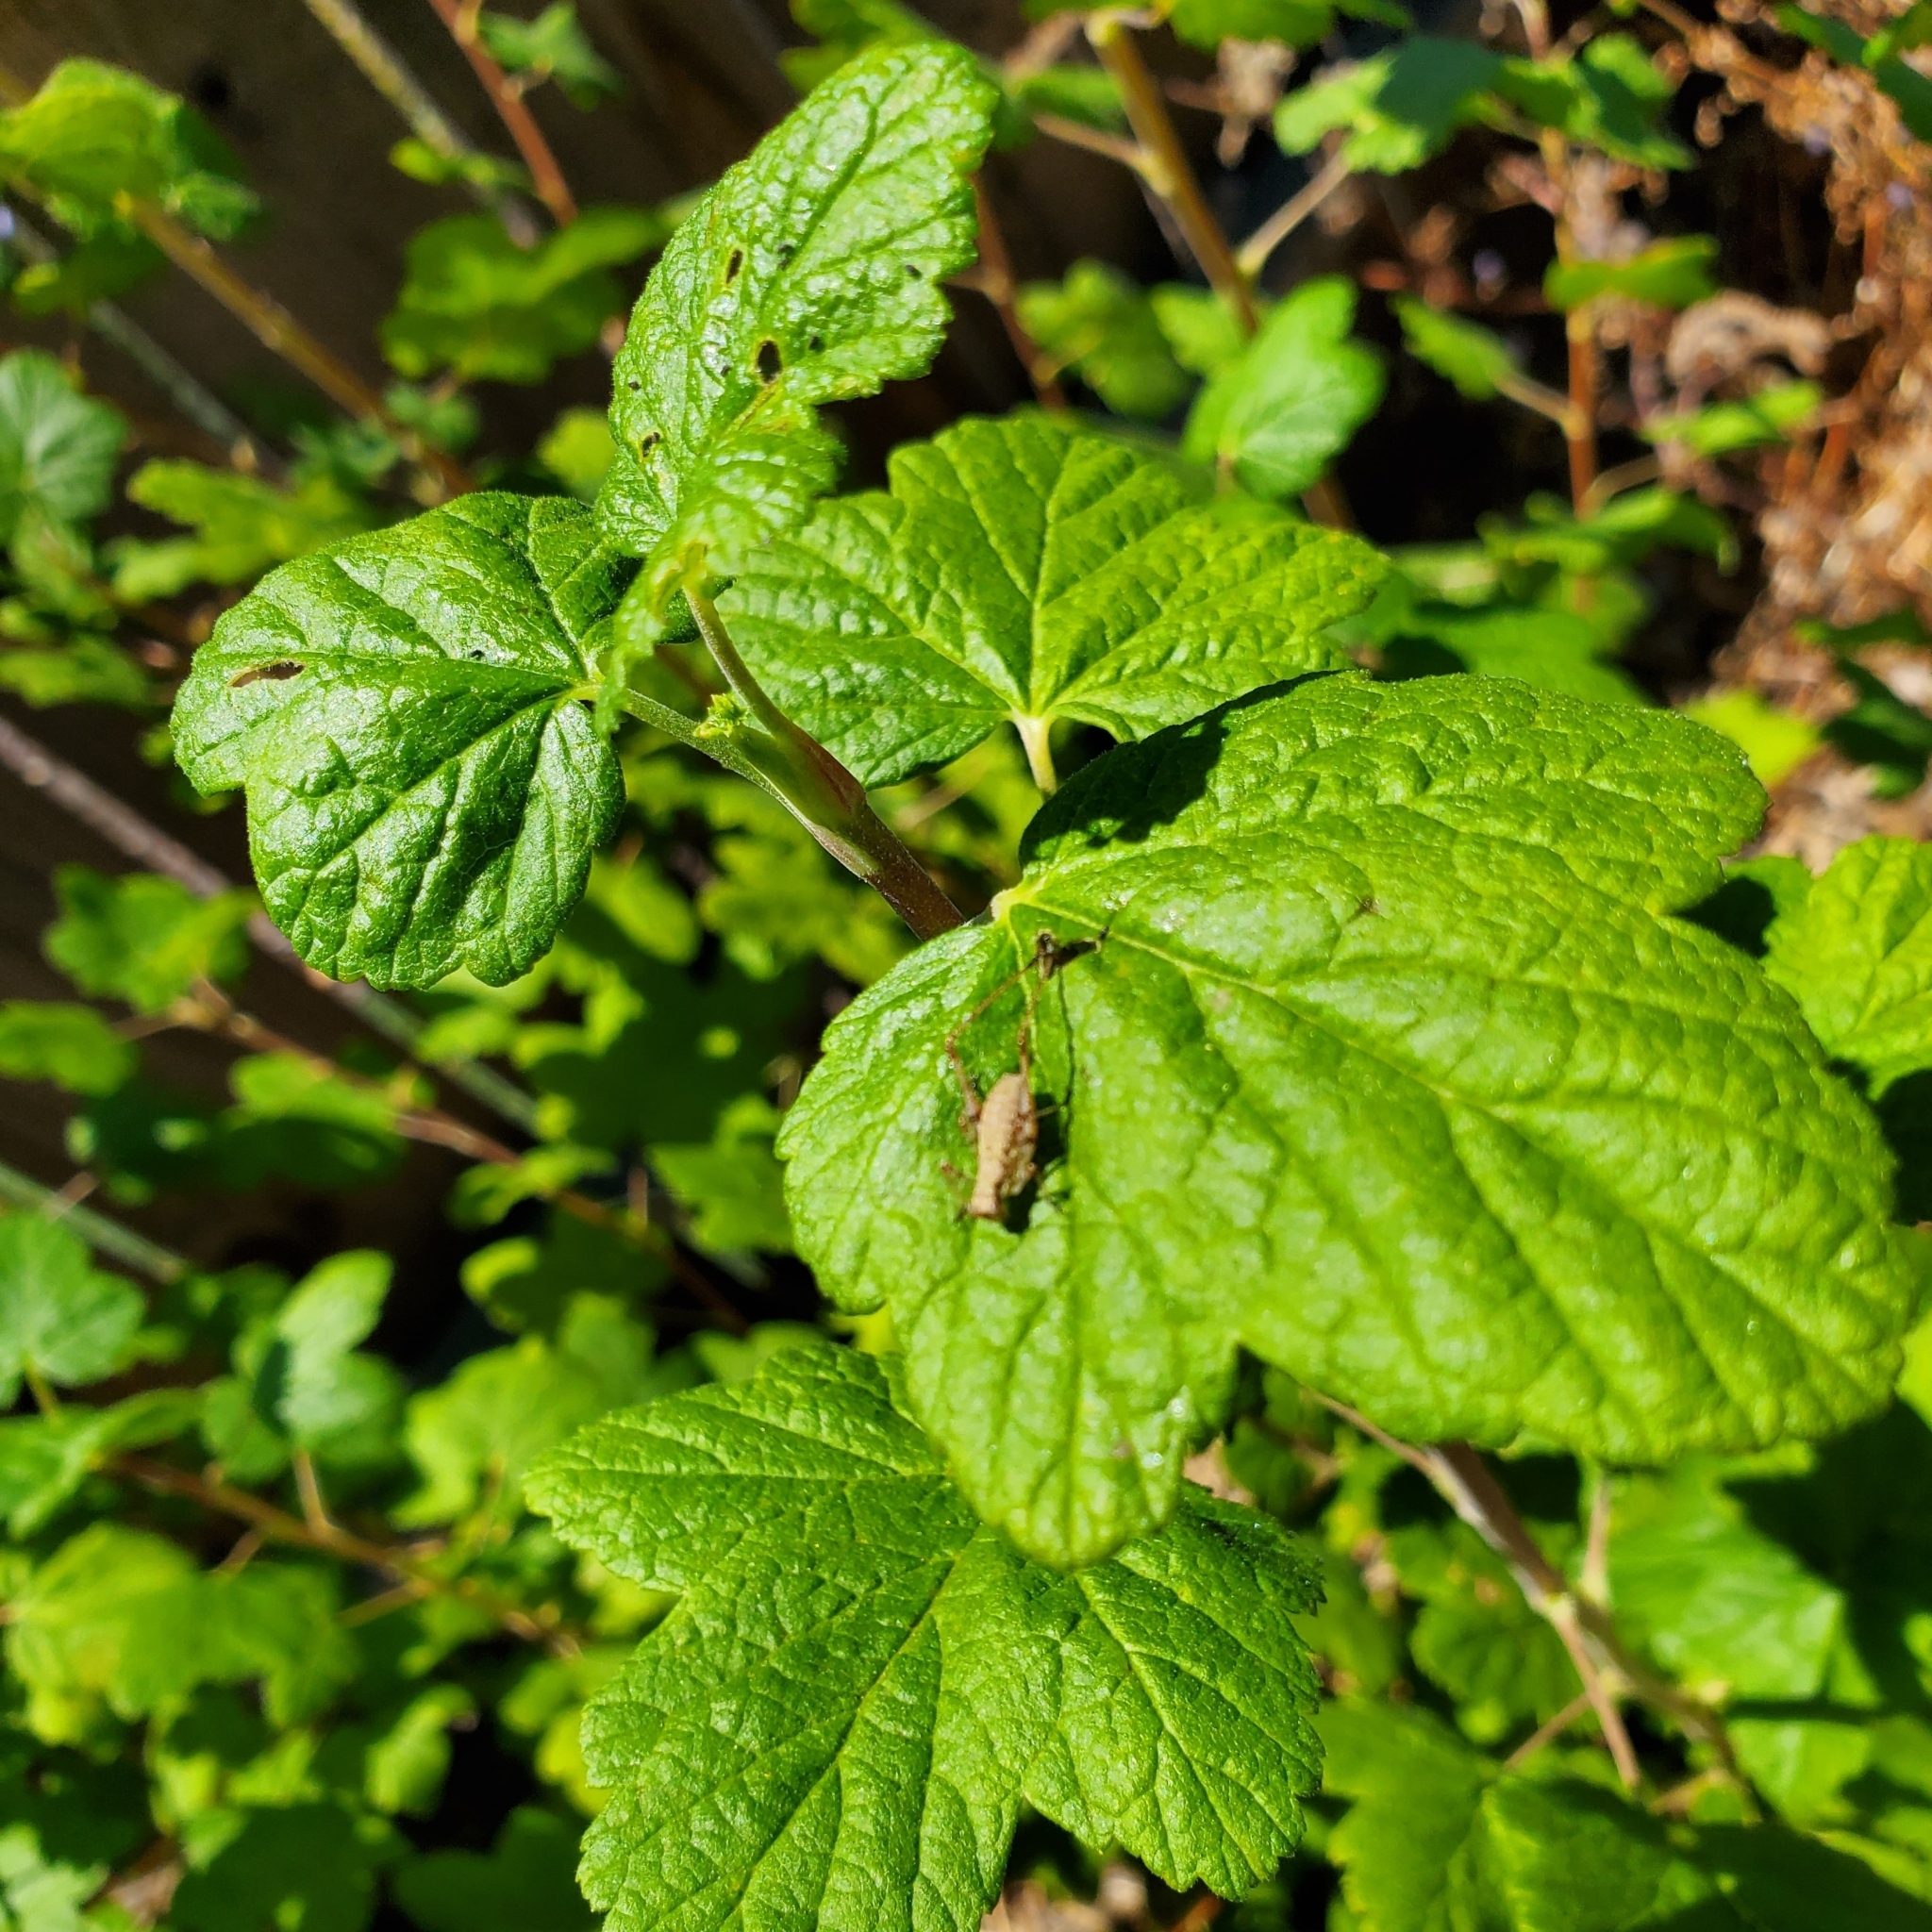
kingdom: Animalia
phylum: Arthropoda
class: Insecta
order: Orthoptera
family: Tettigoniidae
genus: Phaneroptera
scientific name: Phaneroptera nana
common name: Southern sickle bush-cricket
